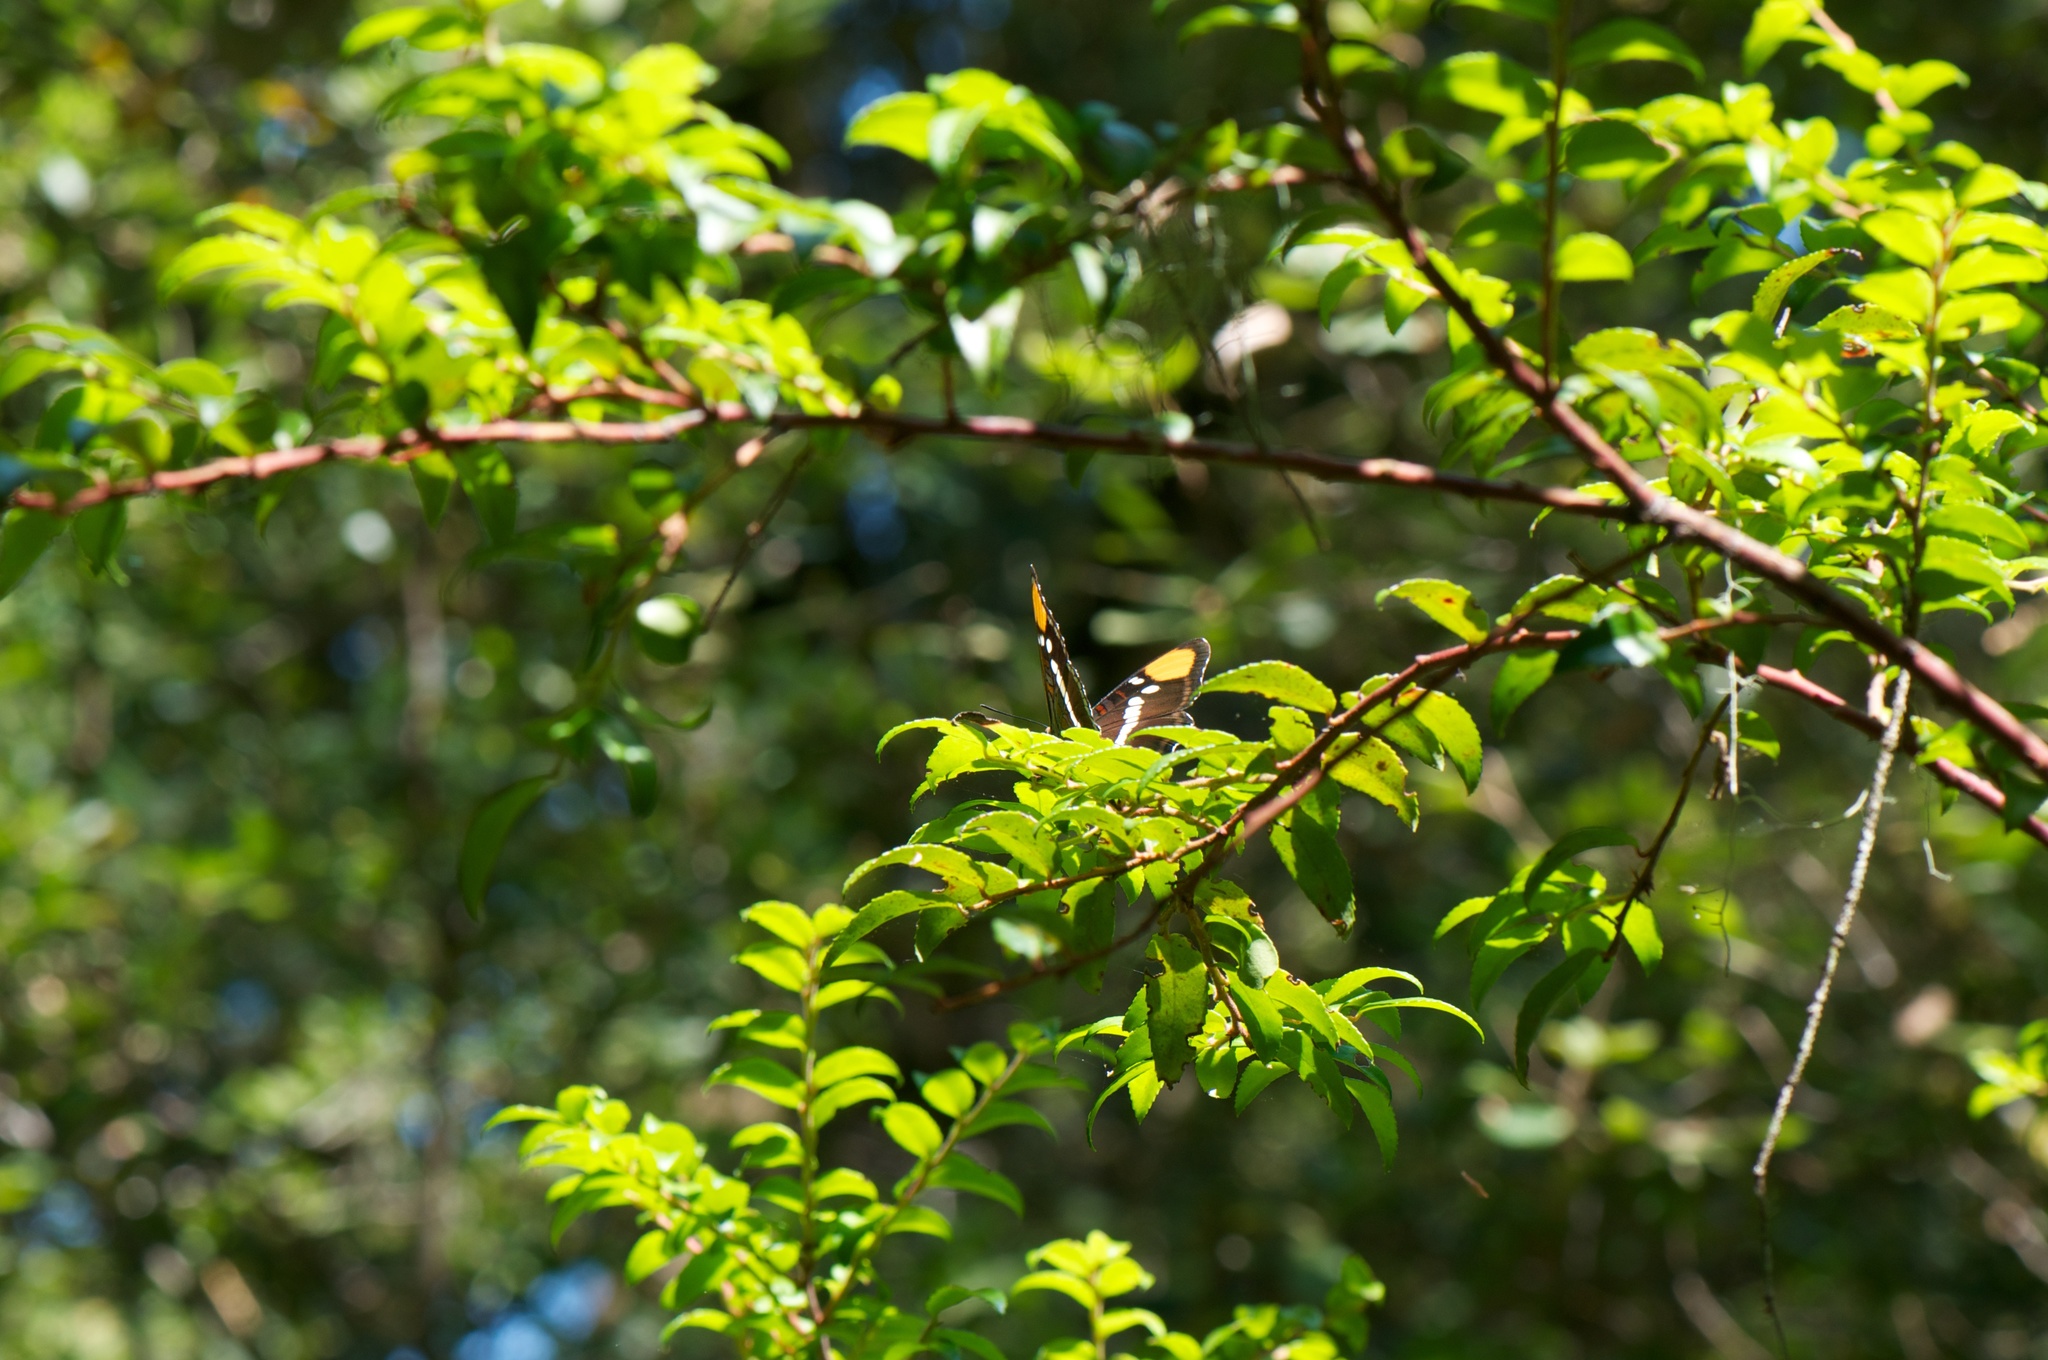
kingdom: Animalia
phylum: Arthropoda
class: Insecta
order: Lepidoptera
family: Nymphalidae
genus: Limenitis
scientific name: Limenitis bredowii
